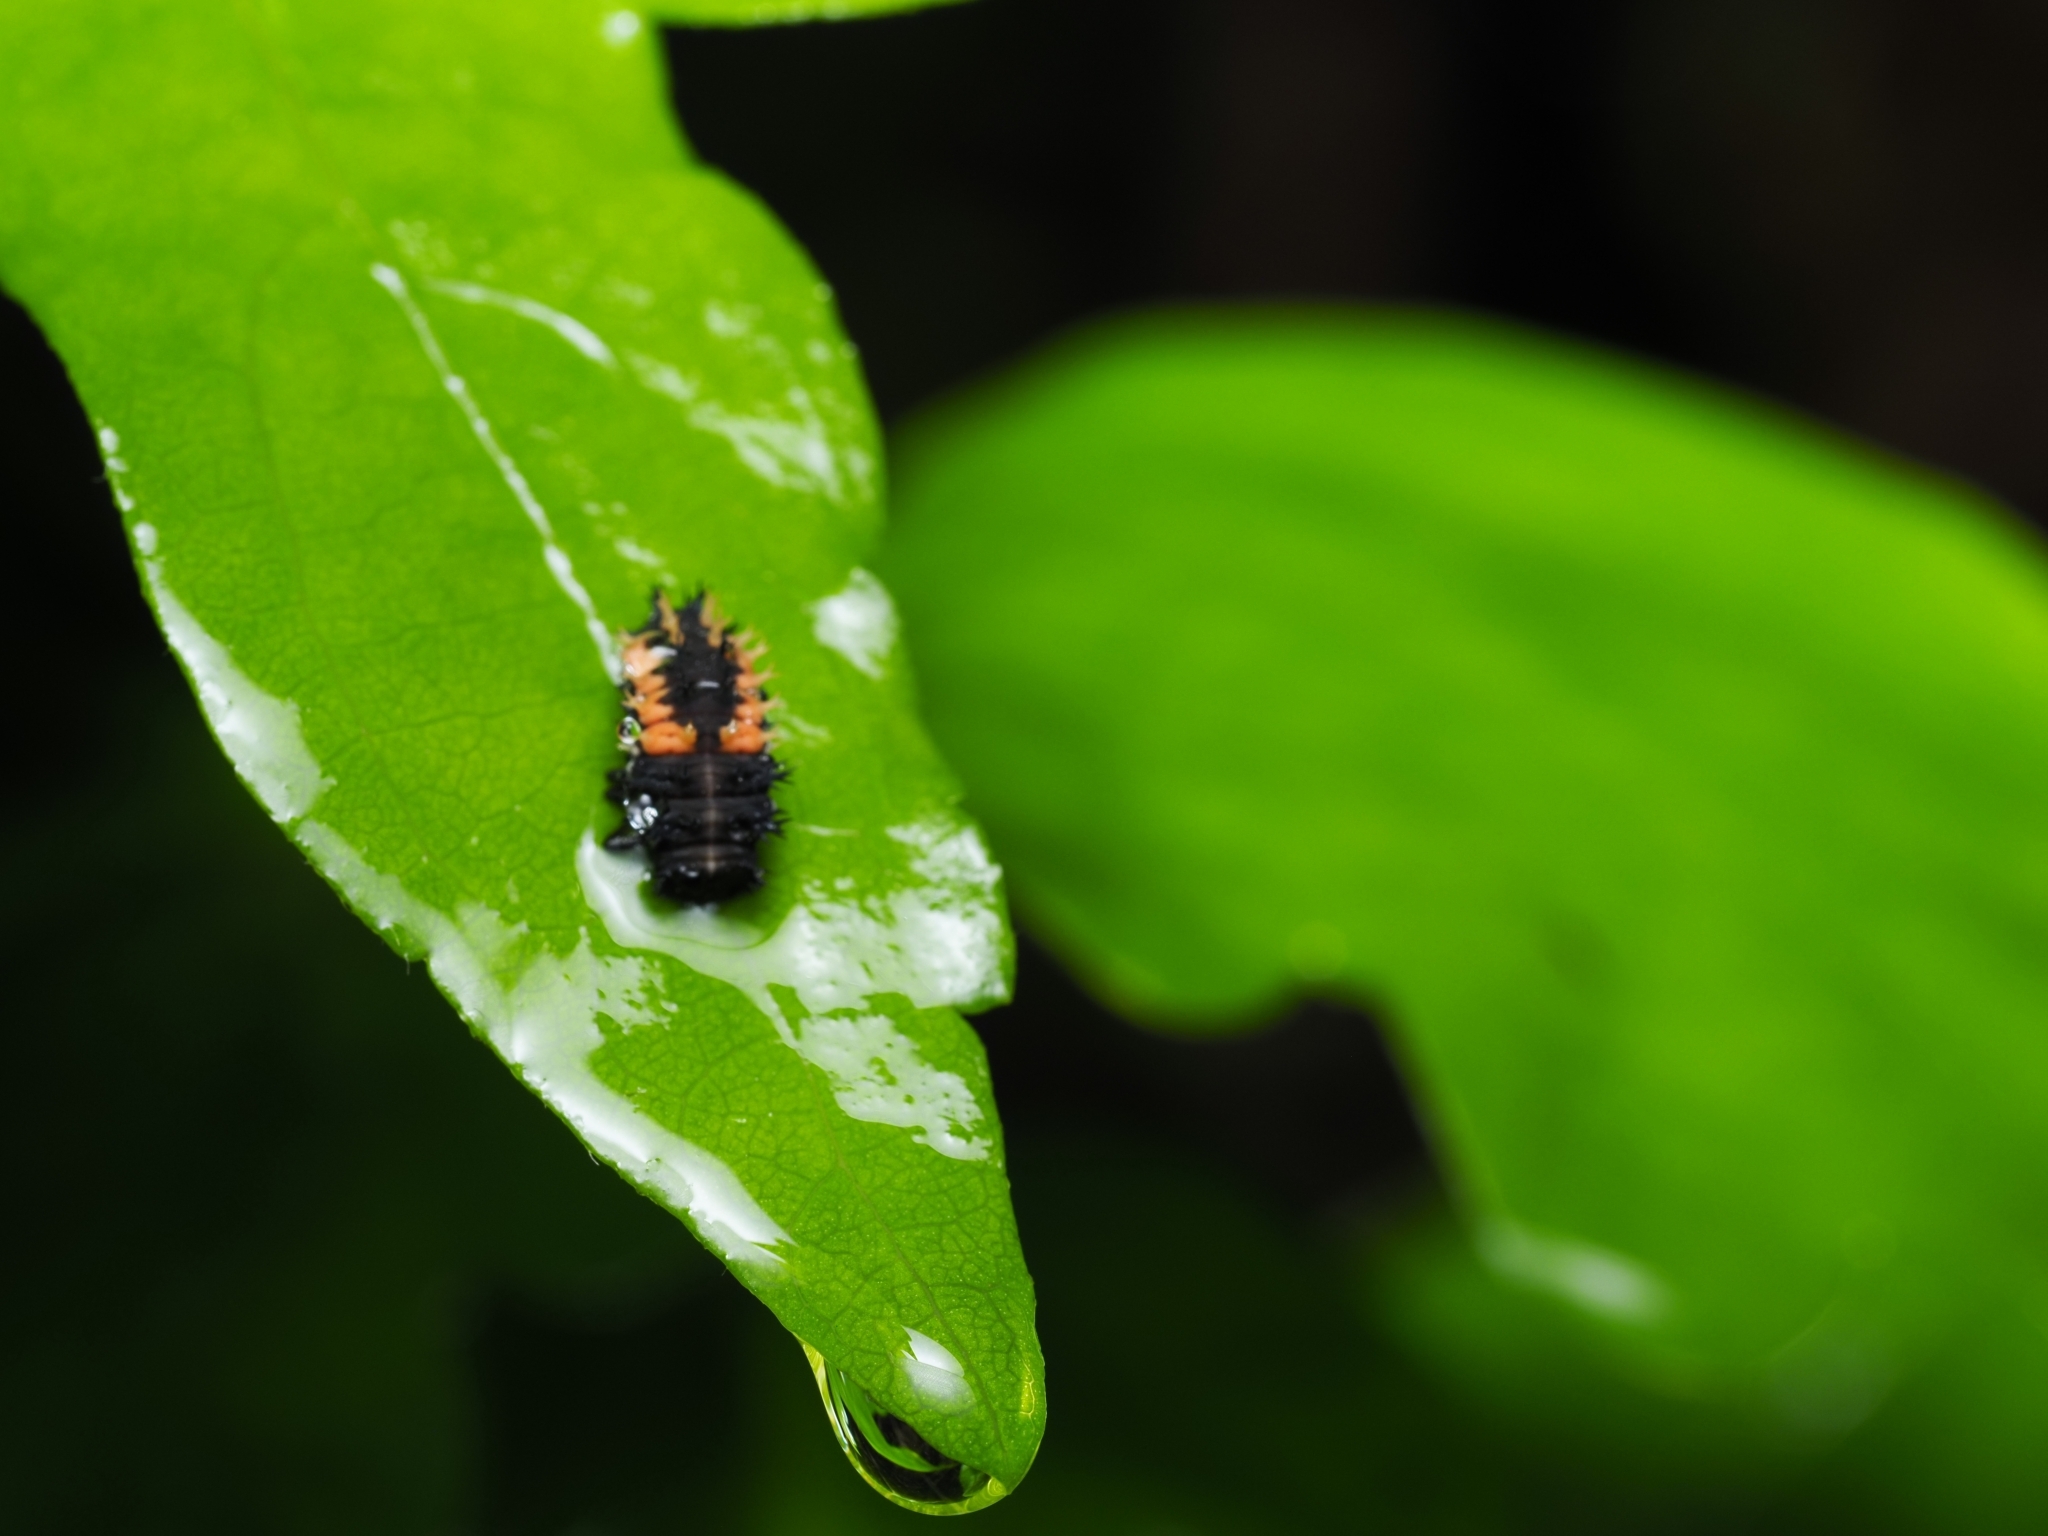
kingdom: Animalia
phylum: Arthropoda
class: Insecta
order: Coleoptera
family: Coccinellidae
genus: Harmonia
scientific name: Harmonia axyridis
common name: Harlequin ladybird
